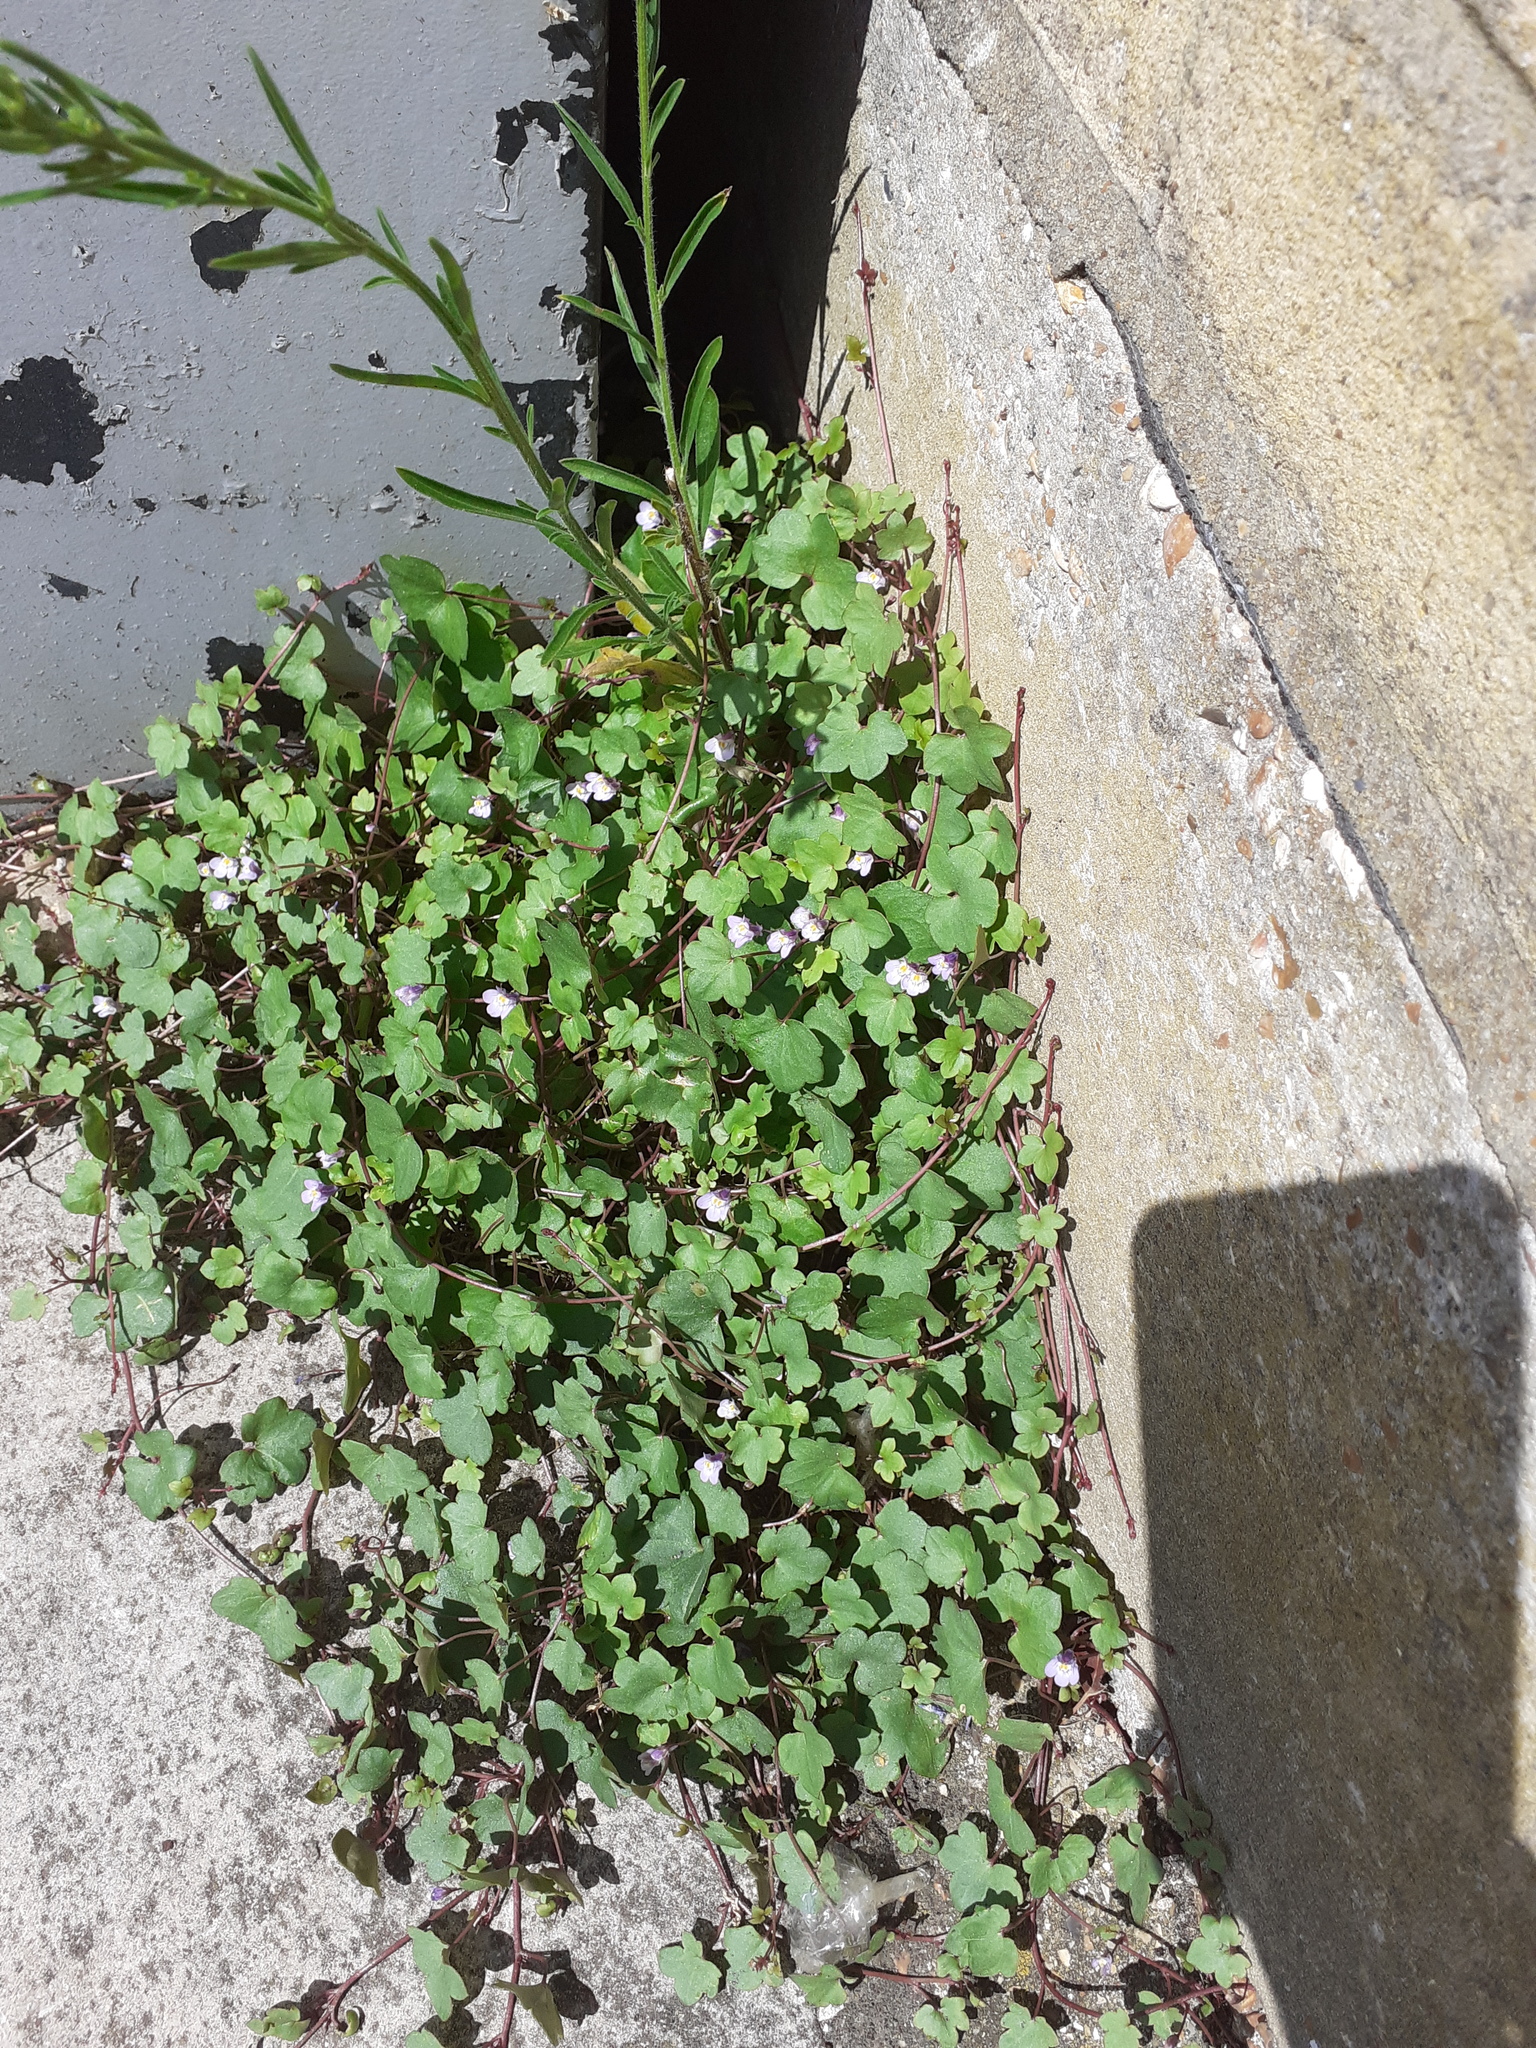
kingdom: Plantae
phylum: Tracheophyta
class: Magnoliopsida
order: Lamiales
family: Plantaginaceae
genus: Cymbalaria
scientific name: Cymbalaria muralis
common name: Ivy-leaved toadflax
